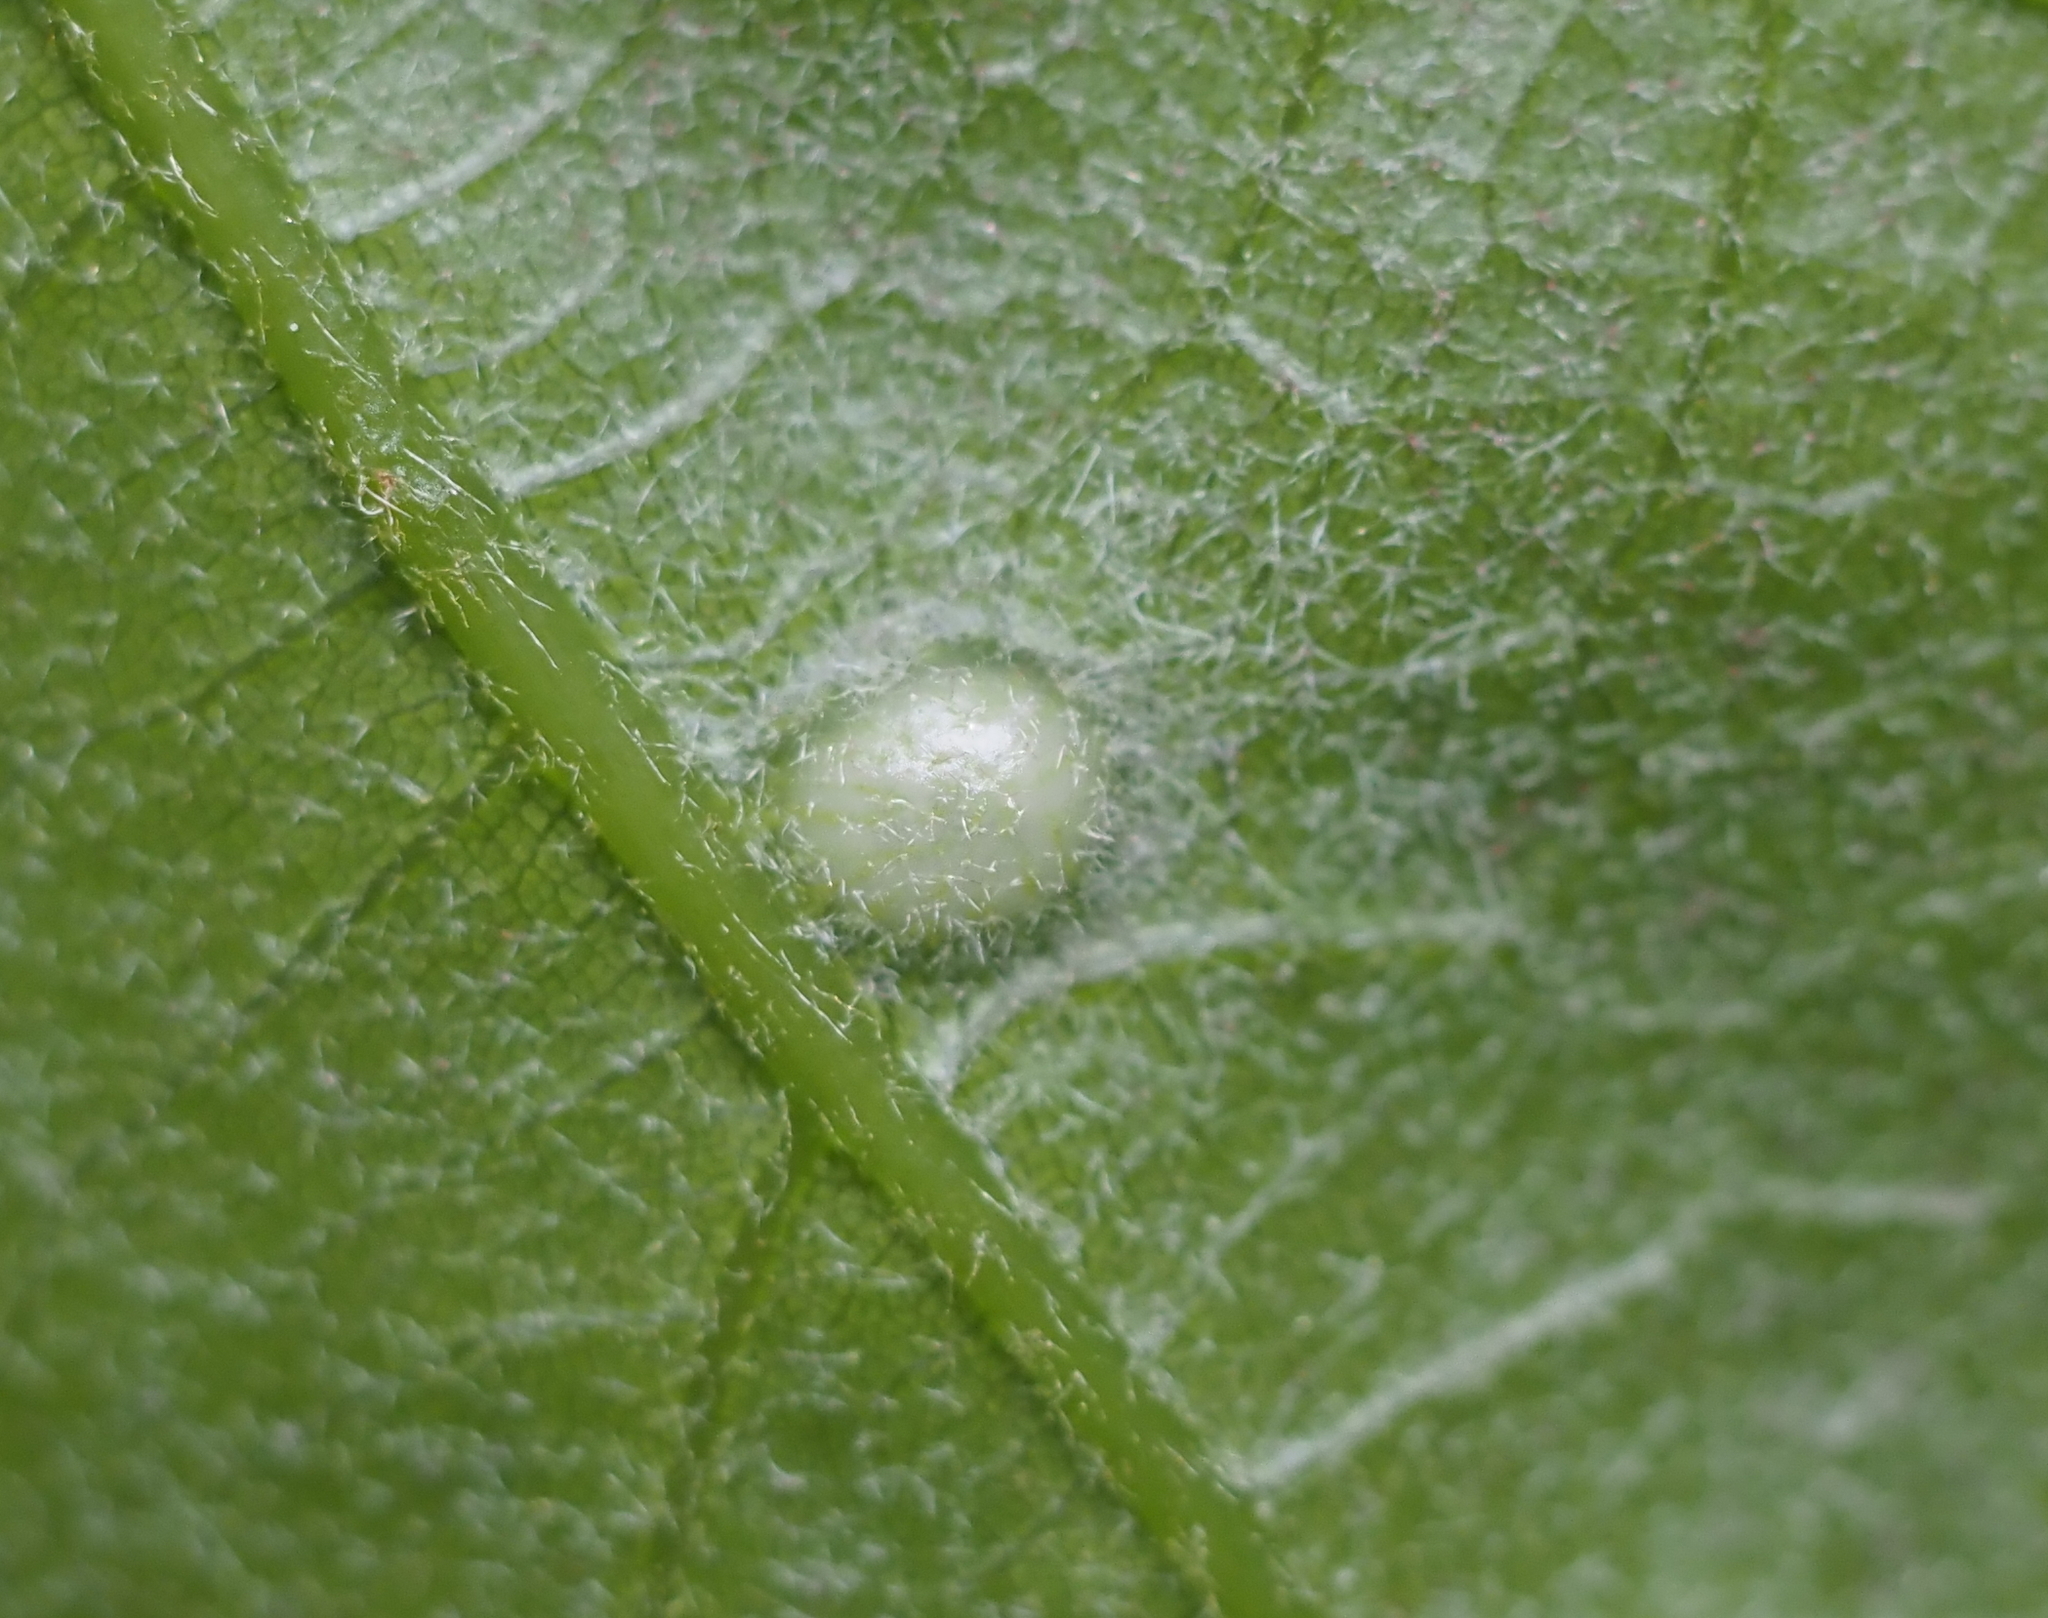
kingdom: Animalia
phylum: Arthropoda
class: Insecta
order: Hymenoptera
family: Cynipidae
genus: Dryocosmus
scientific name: Dryocosmus
